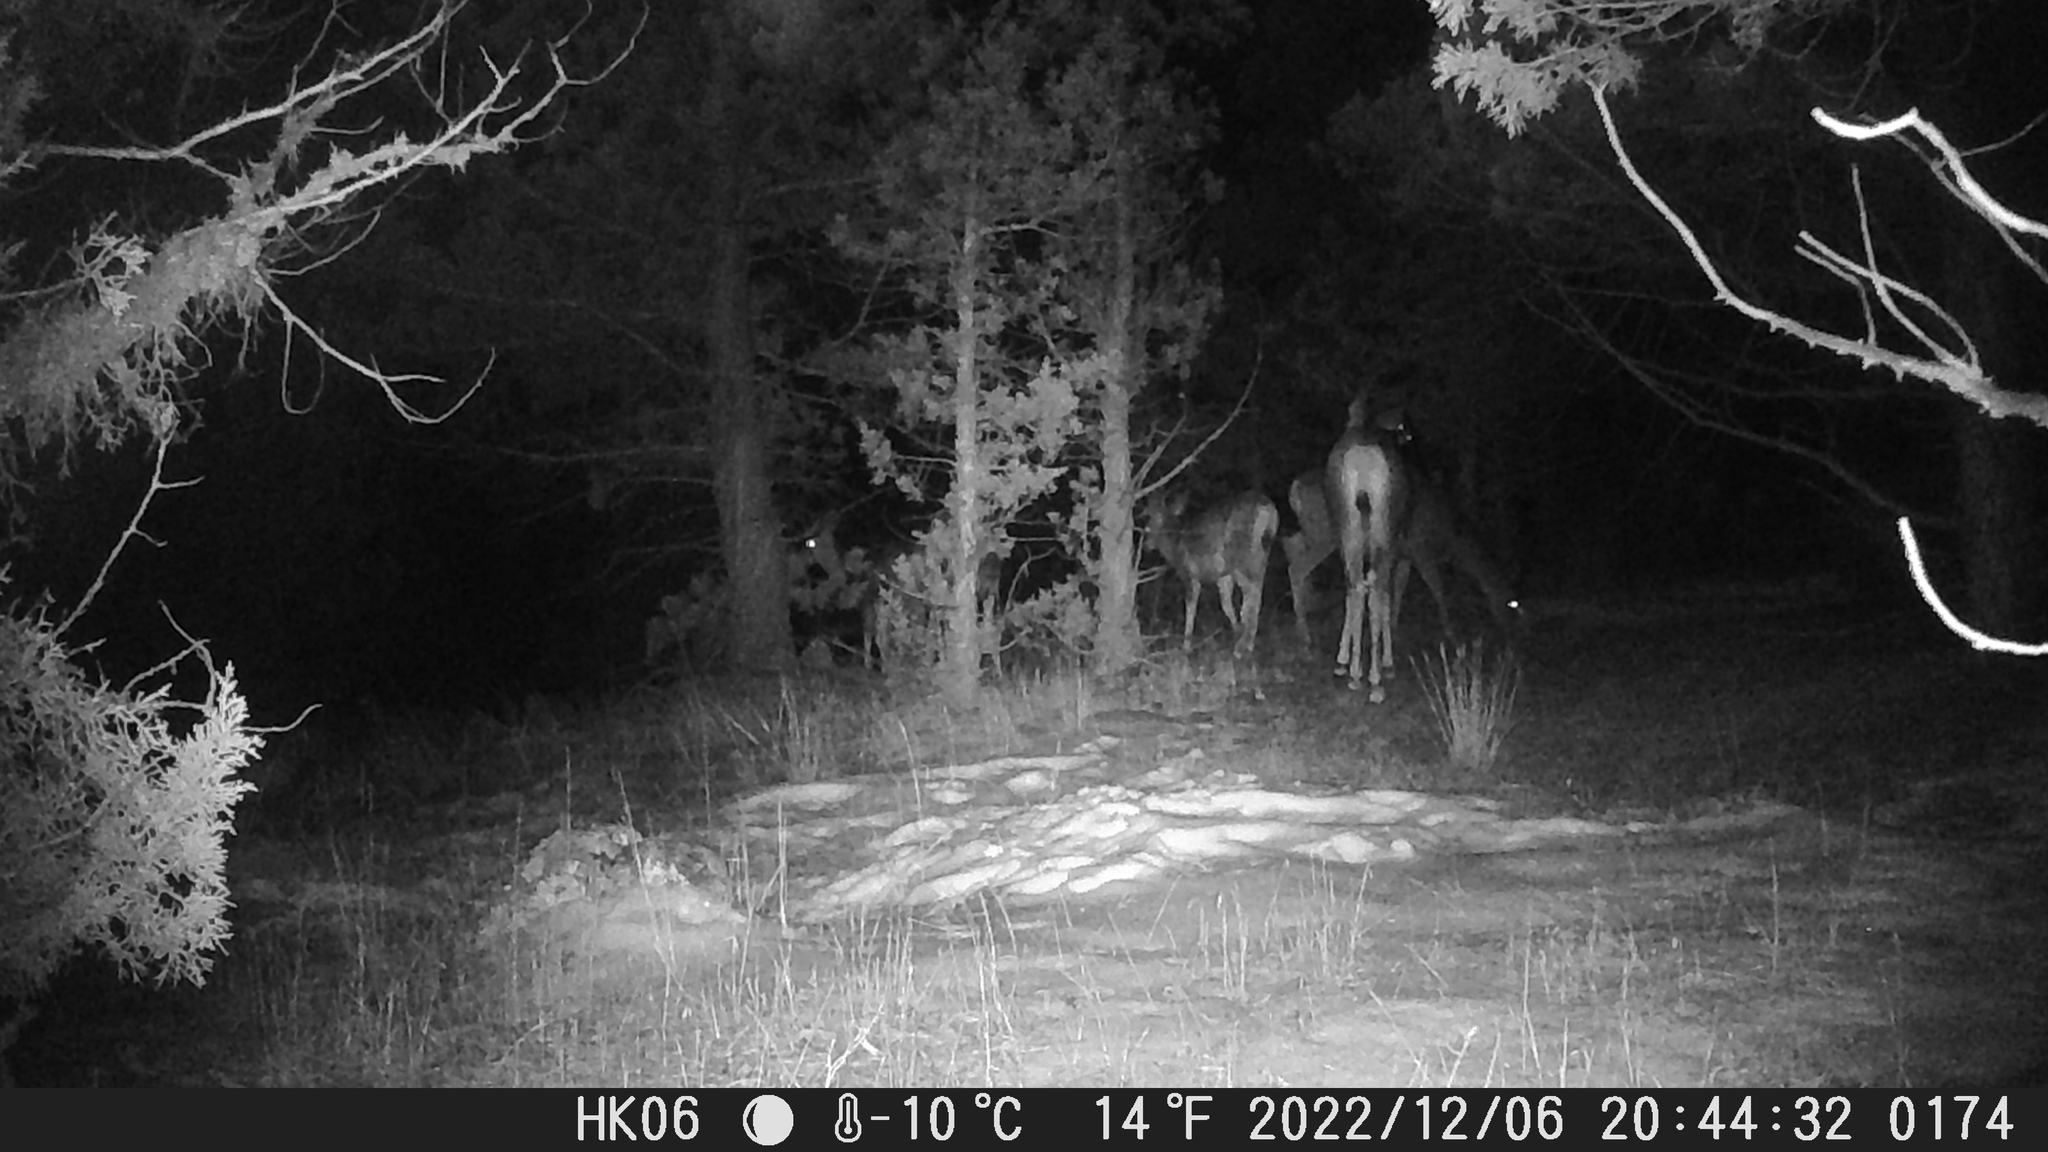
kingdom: Animalia
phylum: Chordata
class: Mammalia
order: Artiodactyla
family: Cervidae
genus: Odocoileus
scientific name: Odocoileus hemionus
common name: Mule deer
